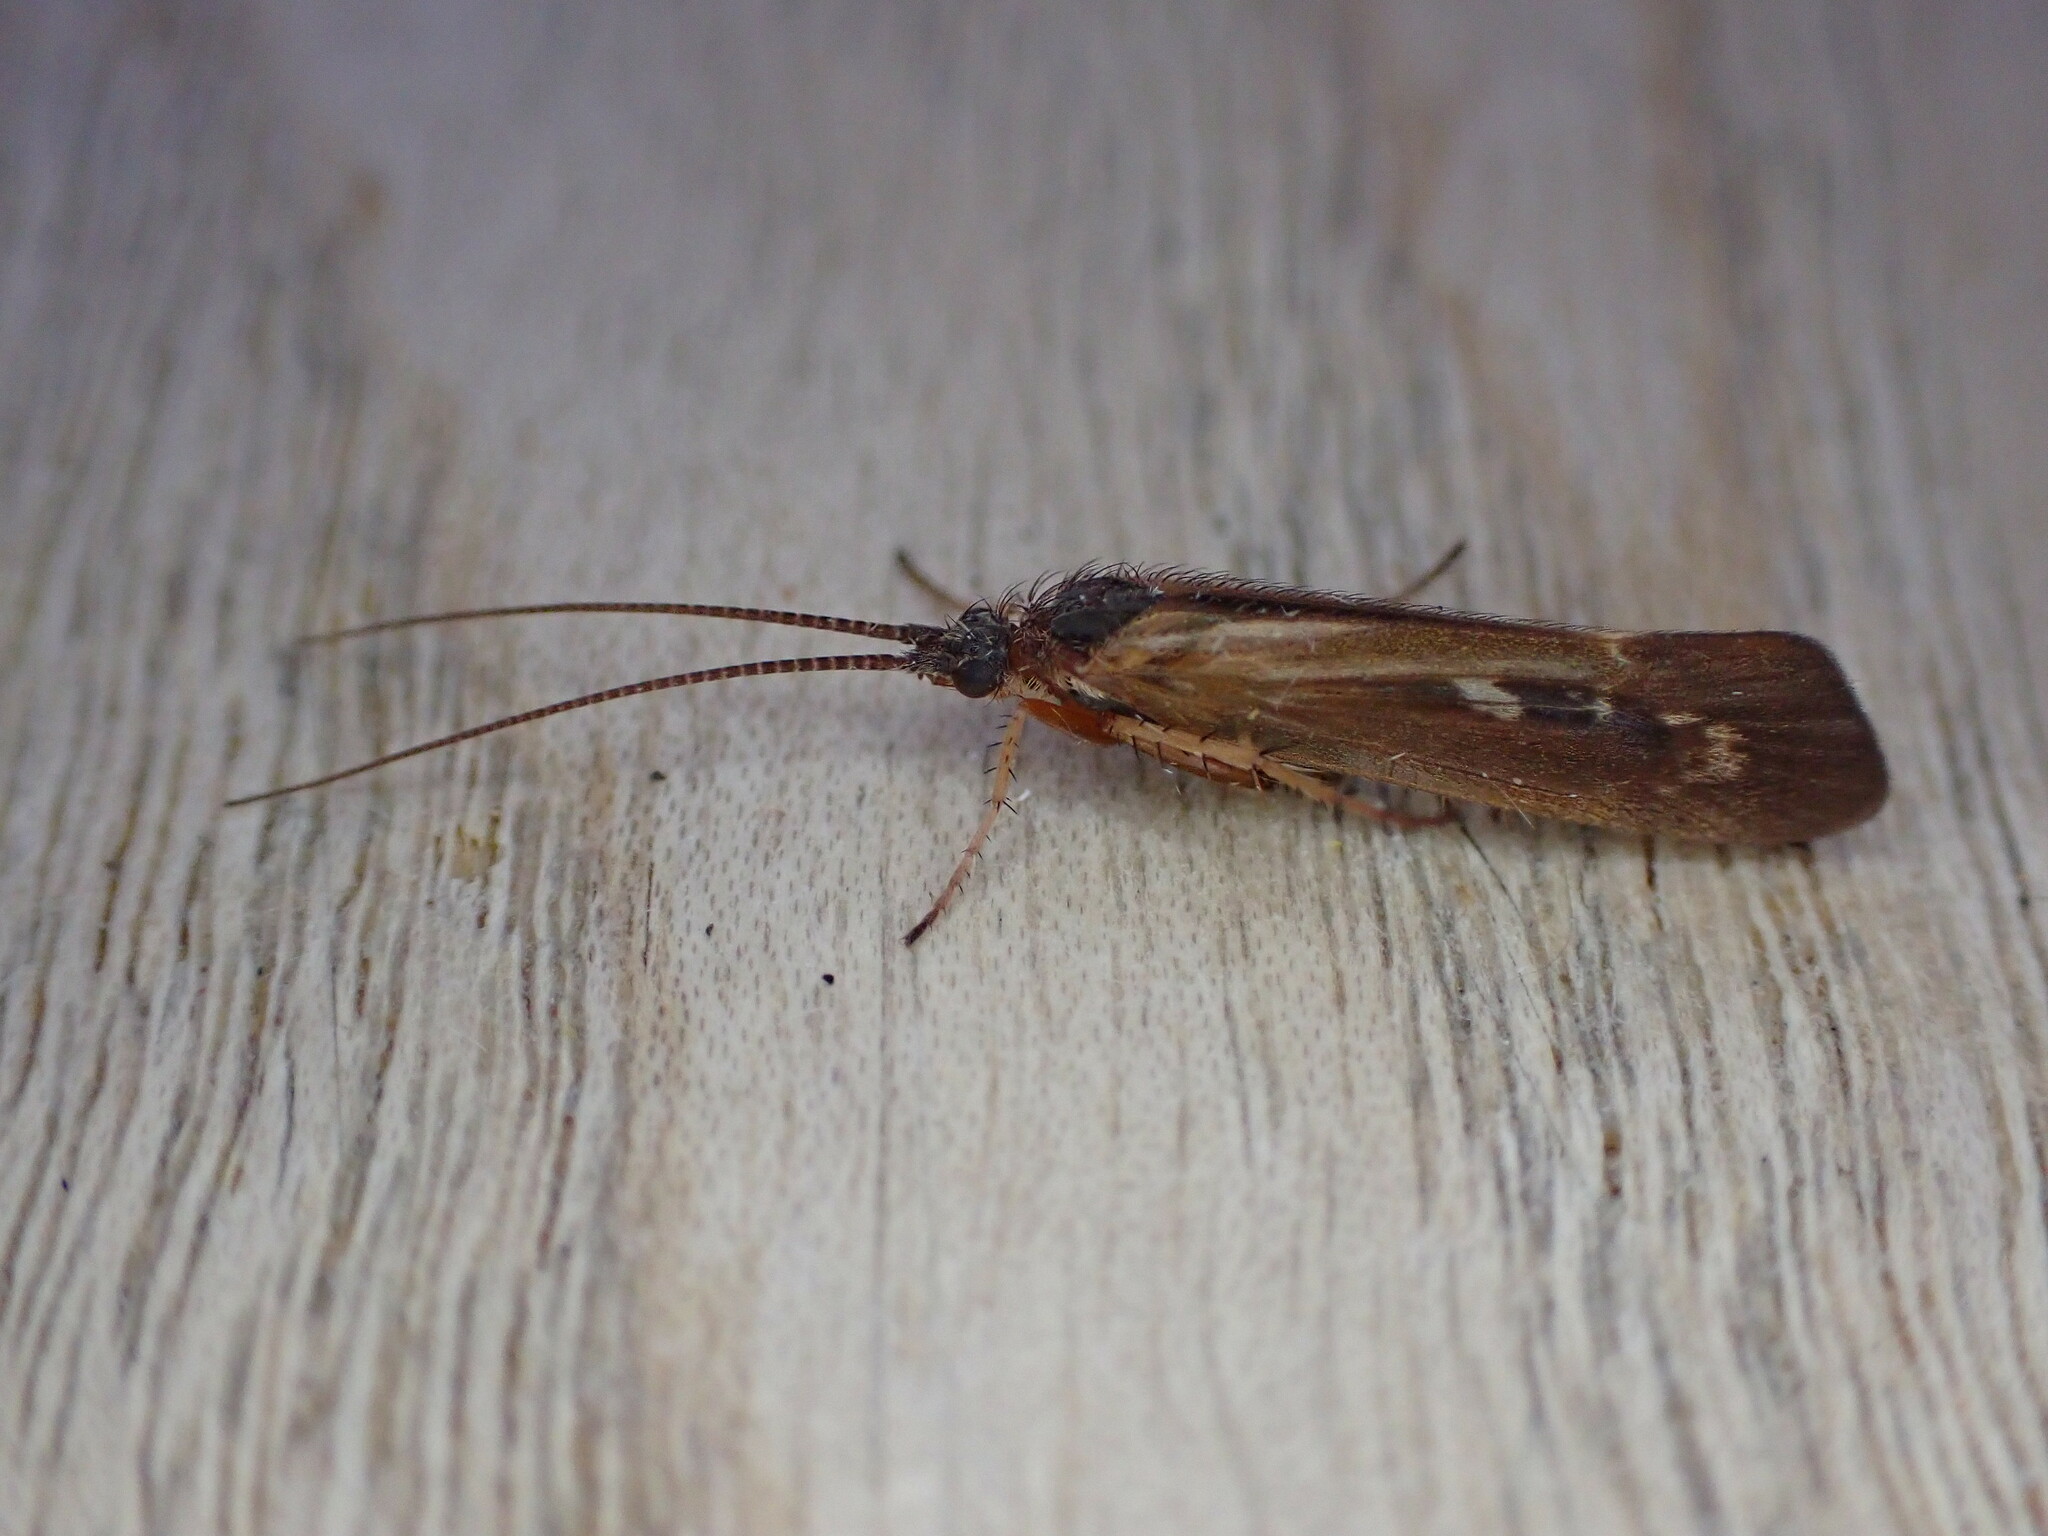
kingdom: Animalia
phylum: Arthropoda
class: Insecta
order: Trichoptera
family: Limnephilidae
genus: Limnephilus
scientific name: Limnephilus auricula
